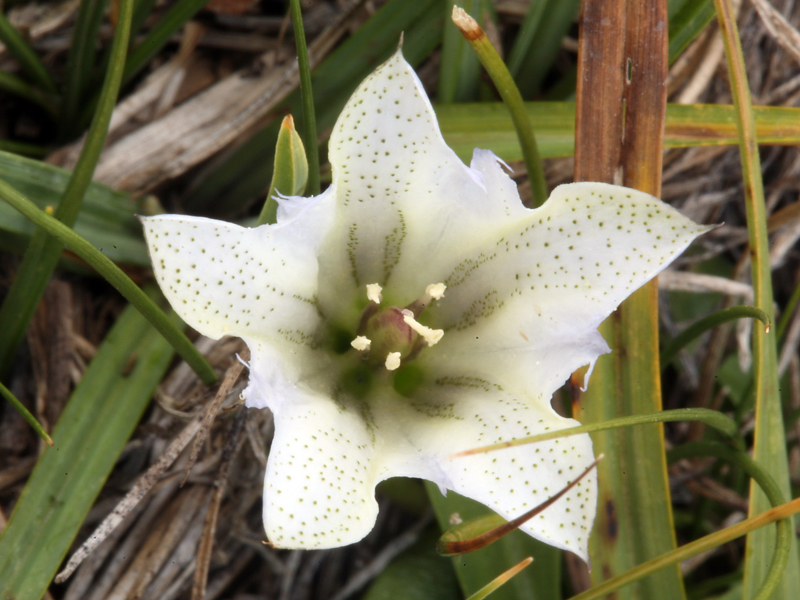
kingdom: Plantae
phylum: Tracheophyta
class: Magnoliopsida
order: Gentianales
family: Gentianaceae
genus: Gentiana
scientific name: Gentiana newberryi
